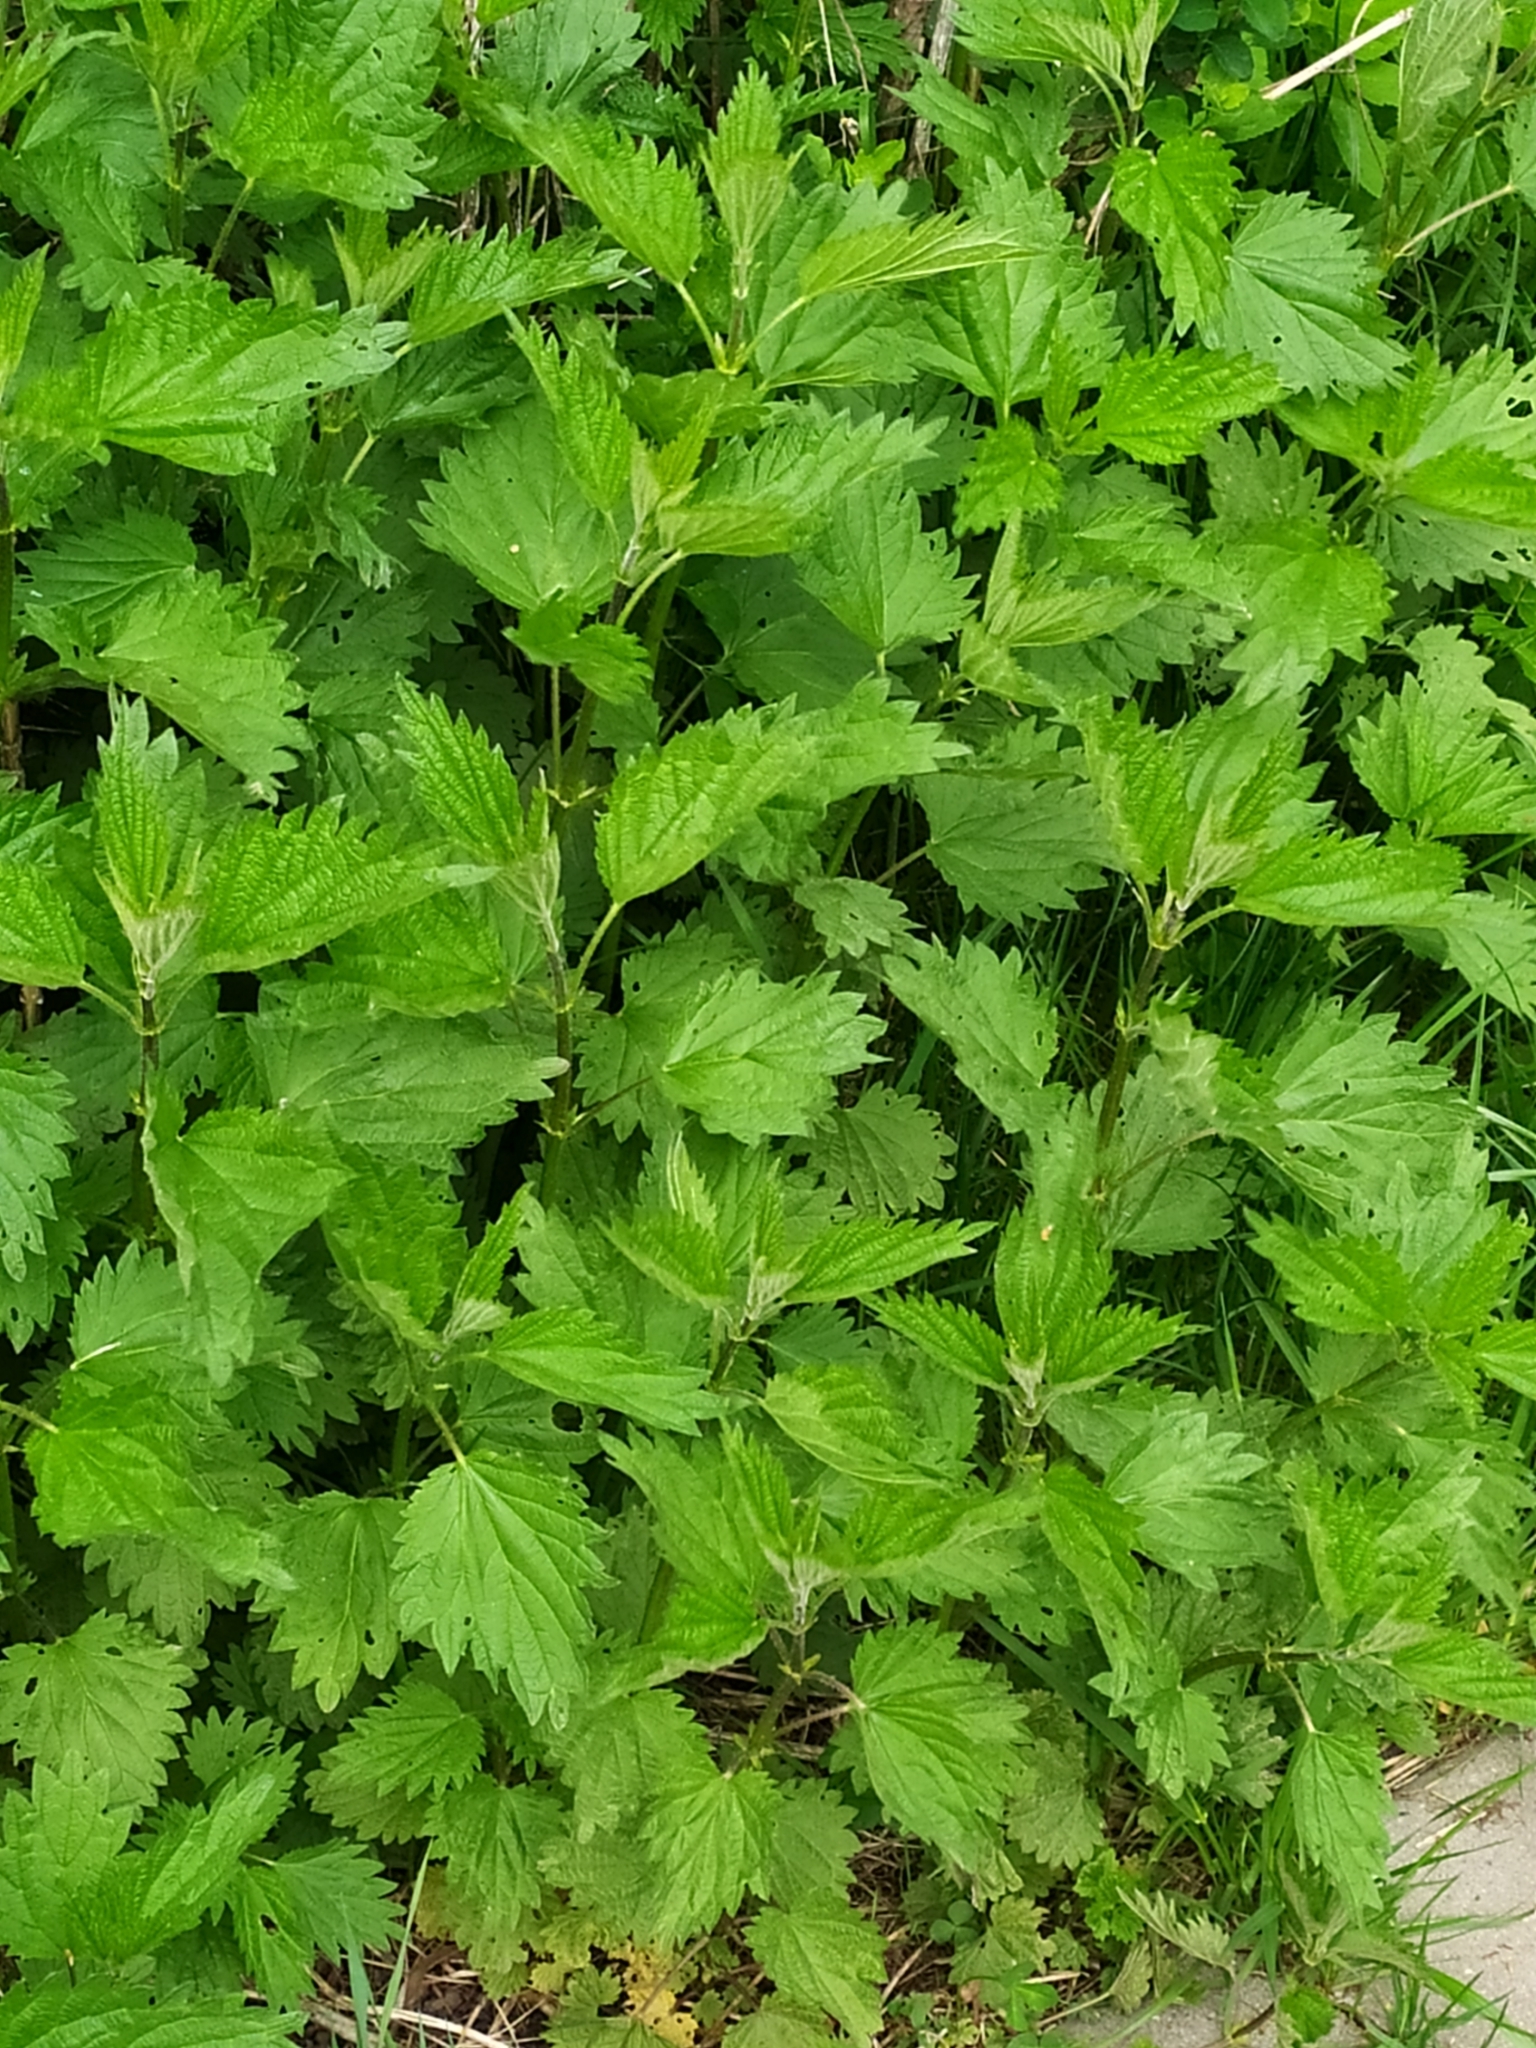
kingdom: Plantae
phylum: Tracheophyta
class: Magnoliopsida
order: Rosales
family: Urticaceae
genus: Urtica
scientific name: Urtica dioica
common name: Common nettle
